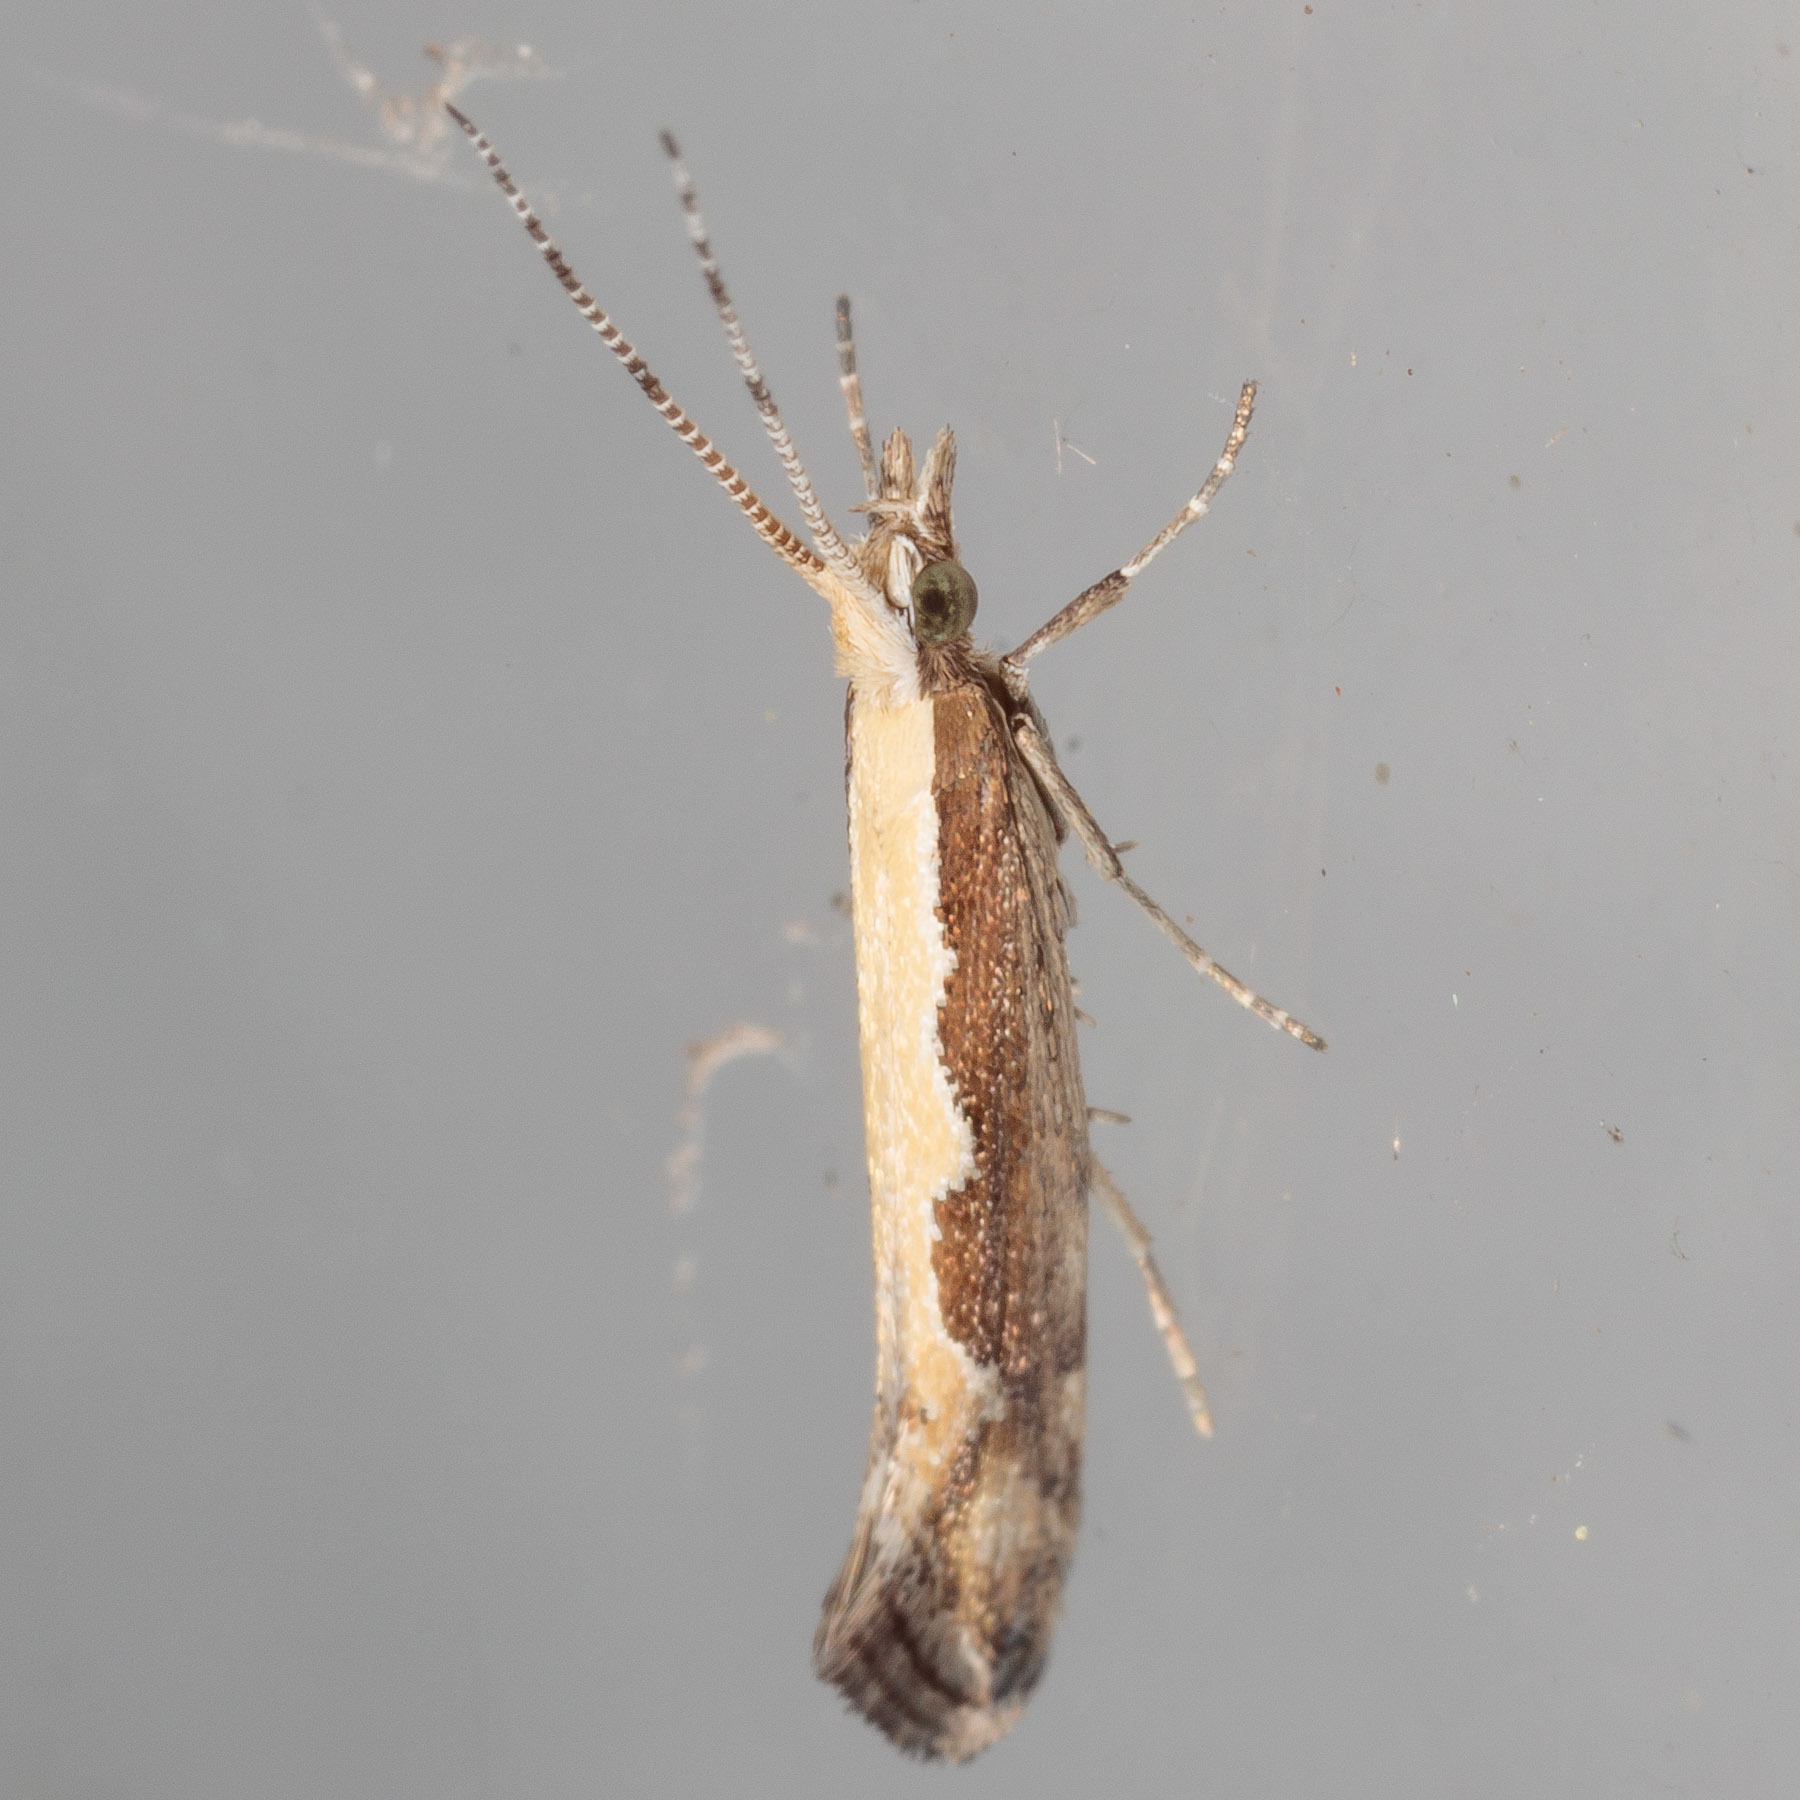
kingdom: Animalia
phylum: Arthropoda
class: Insecta
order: Lepidoptera
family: Plutellidae
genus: Plutella
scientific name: Plutella xylostella
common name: Diamond-back moth
